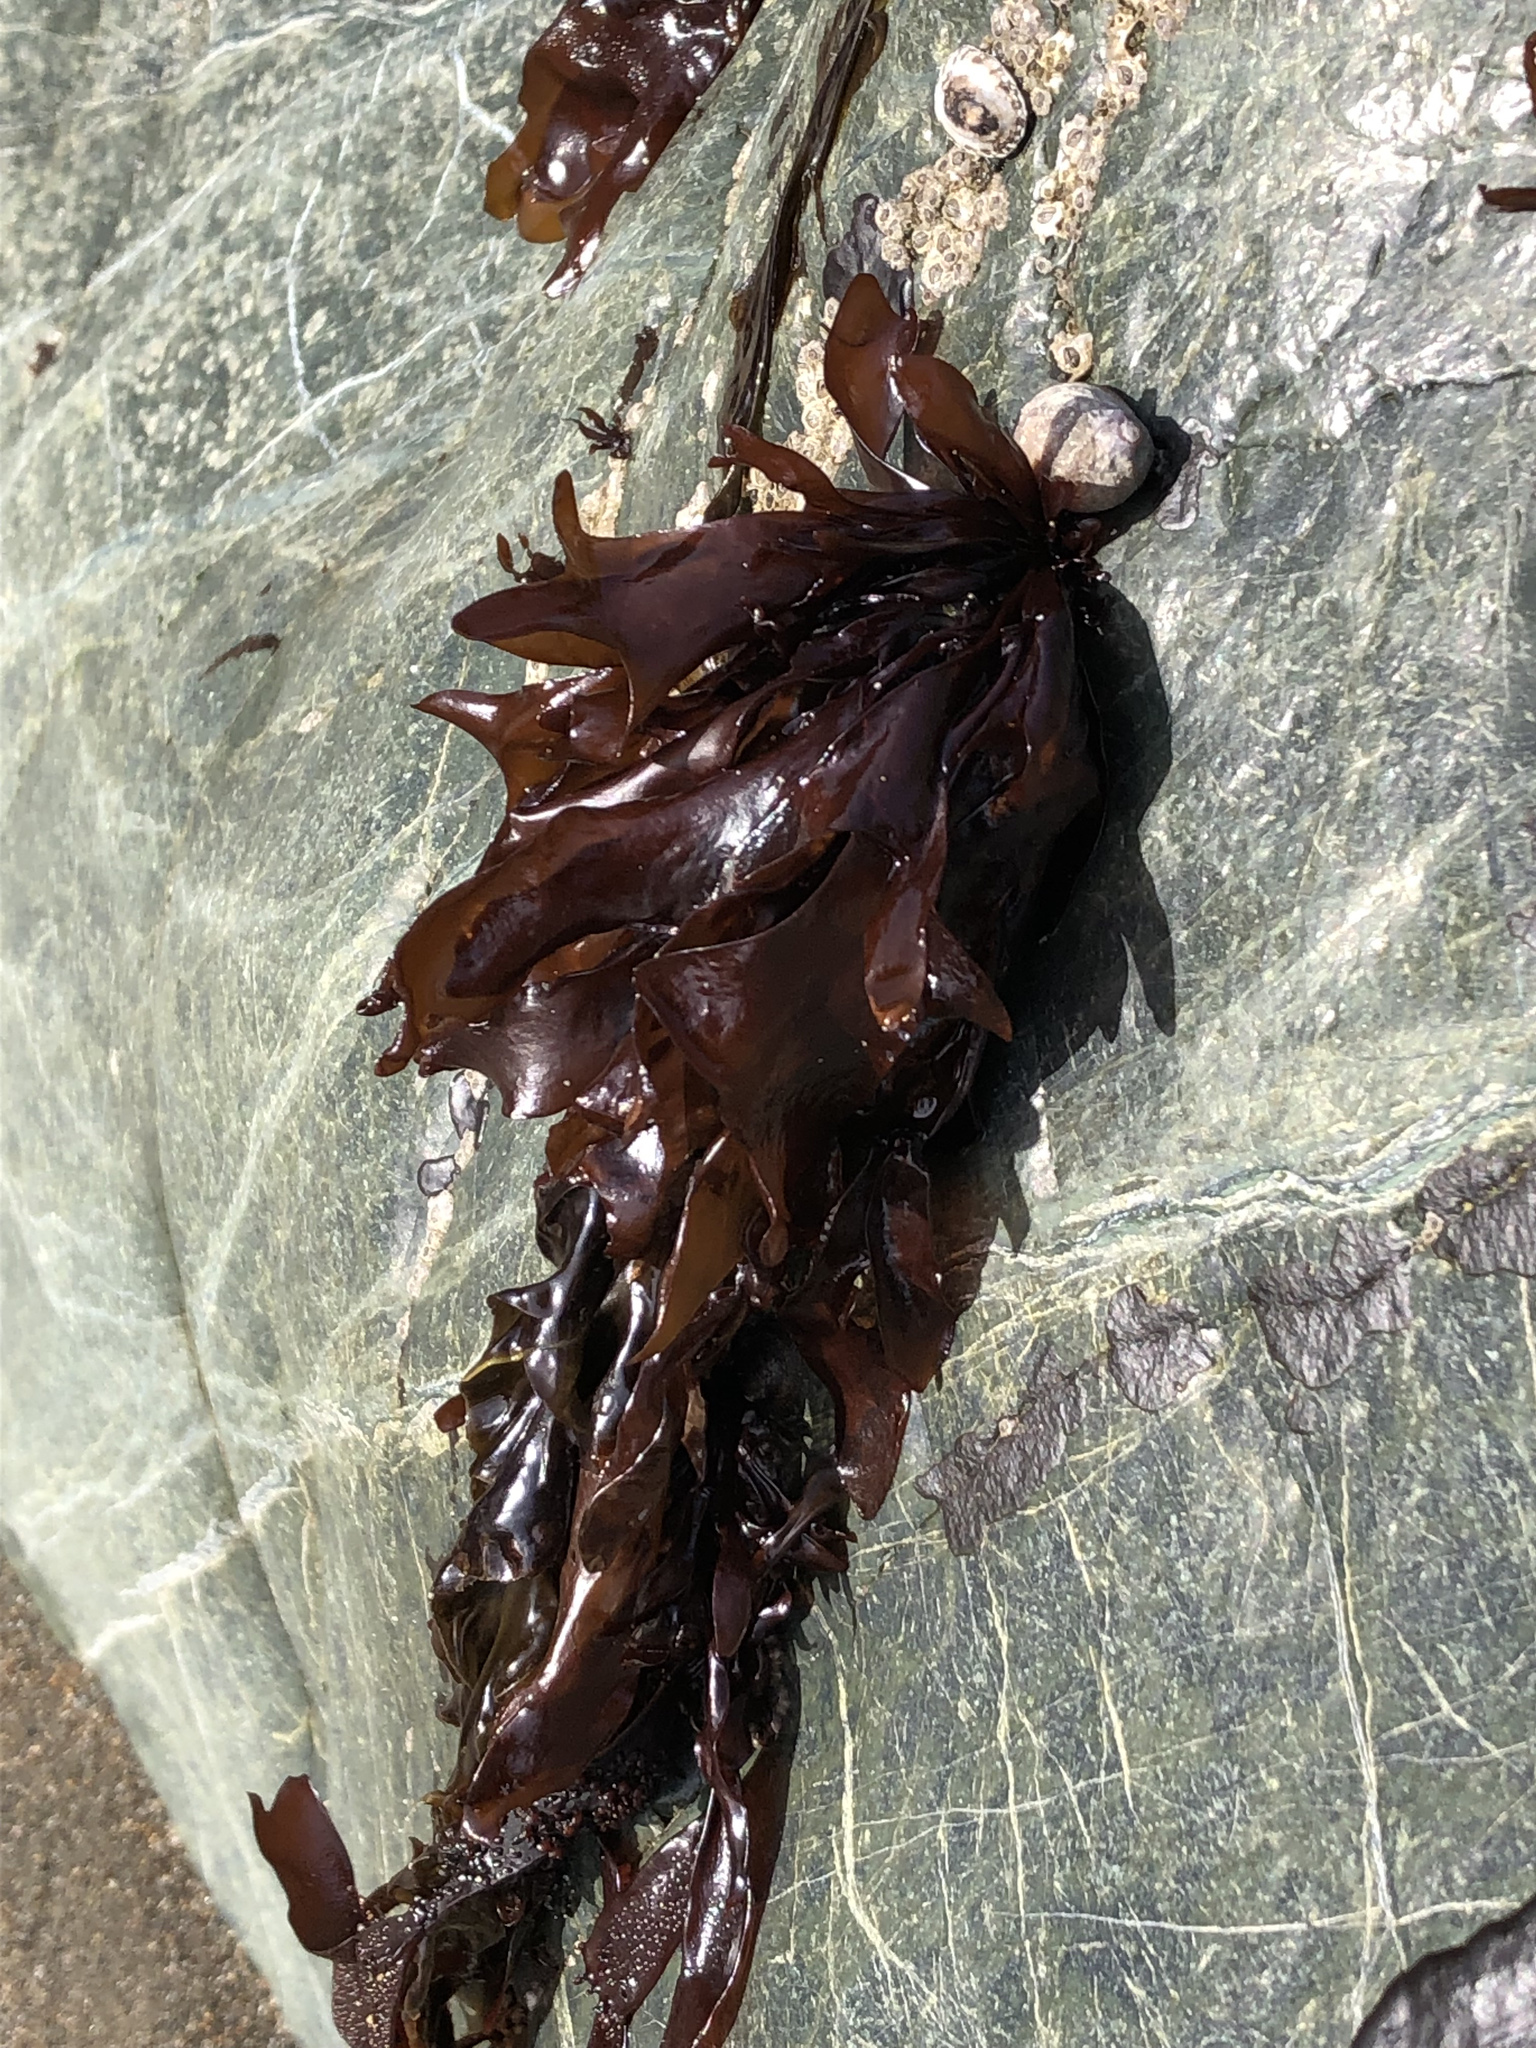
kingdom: Plantae
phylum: Rhodophyta
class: Florideophyceae
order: Gigartinales
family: Phyllophoraceae
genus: Mastocarpus
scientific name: Mastocarpus papillatus
